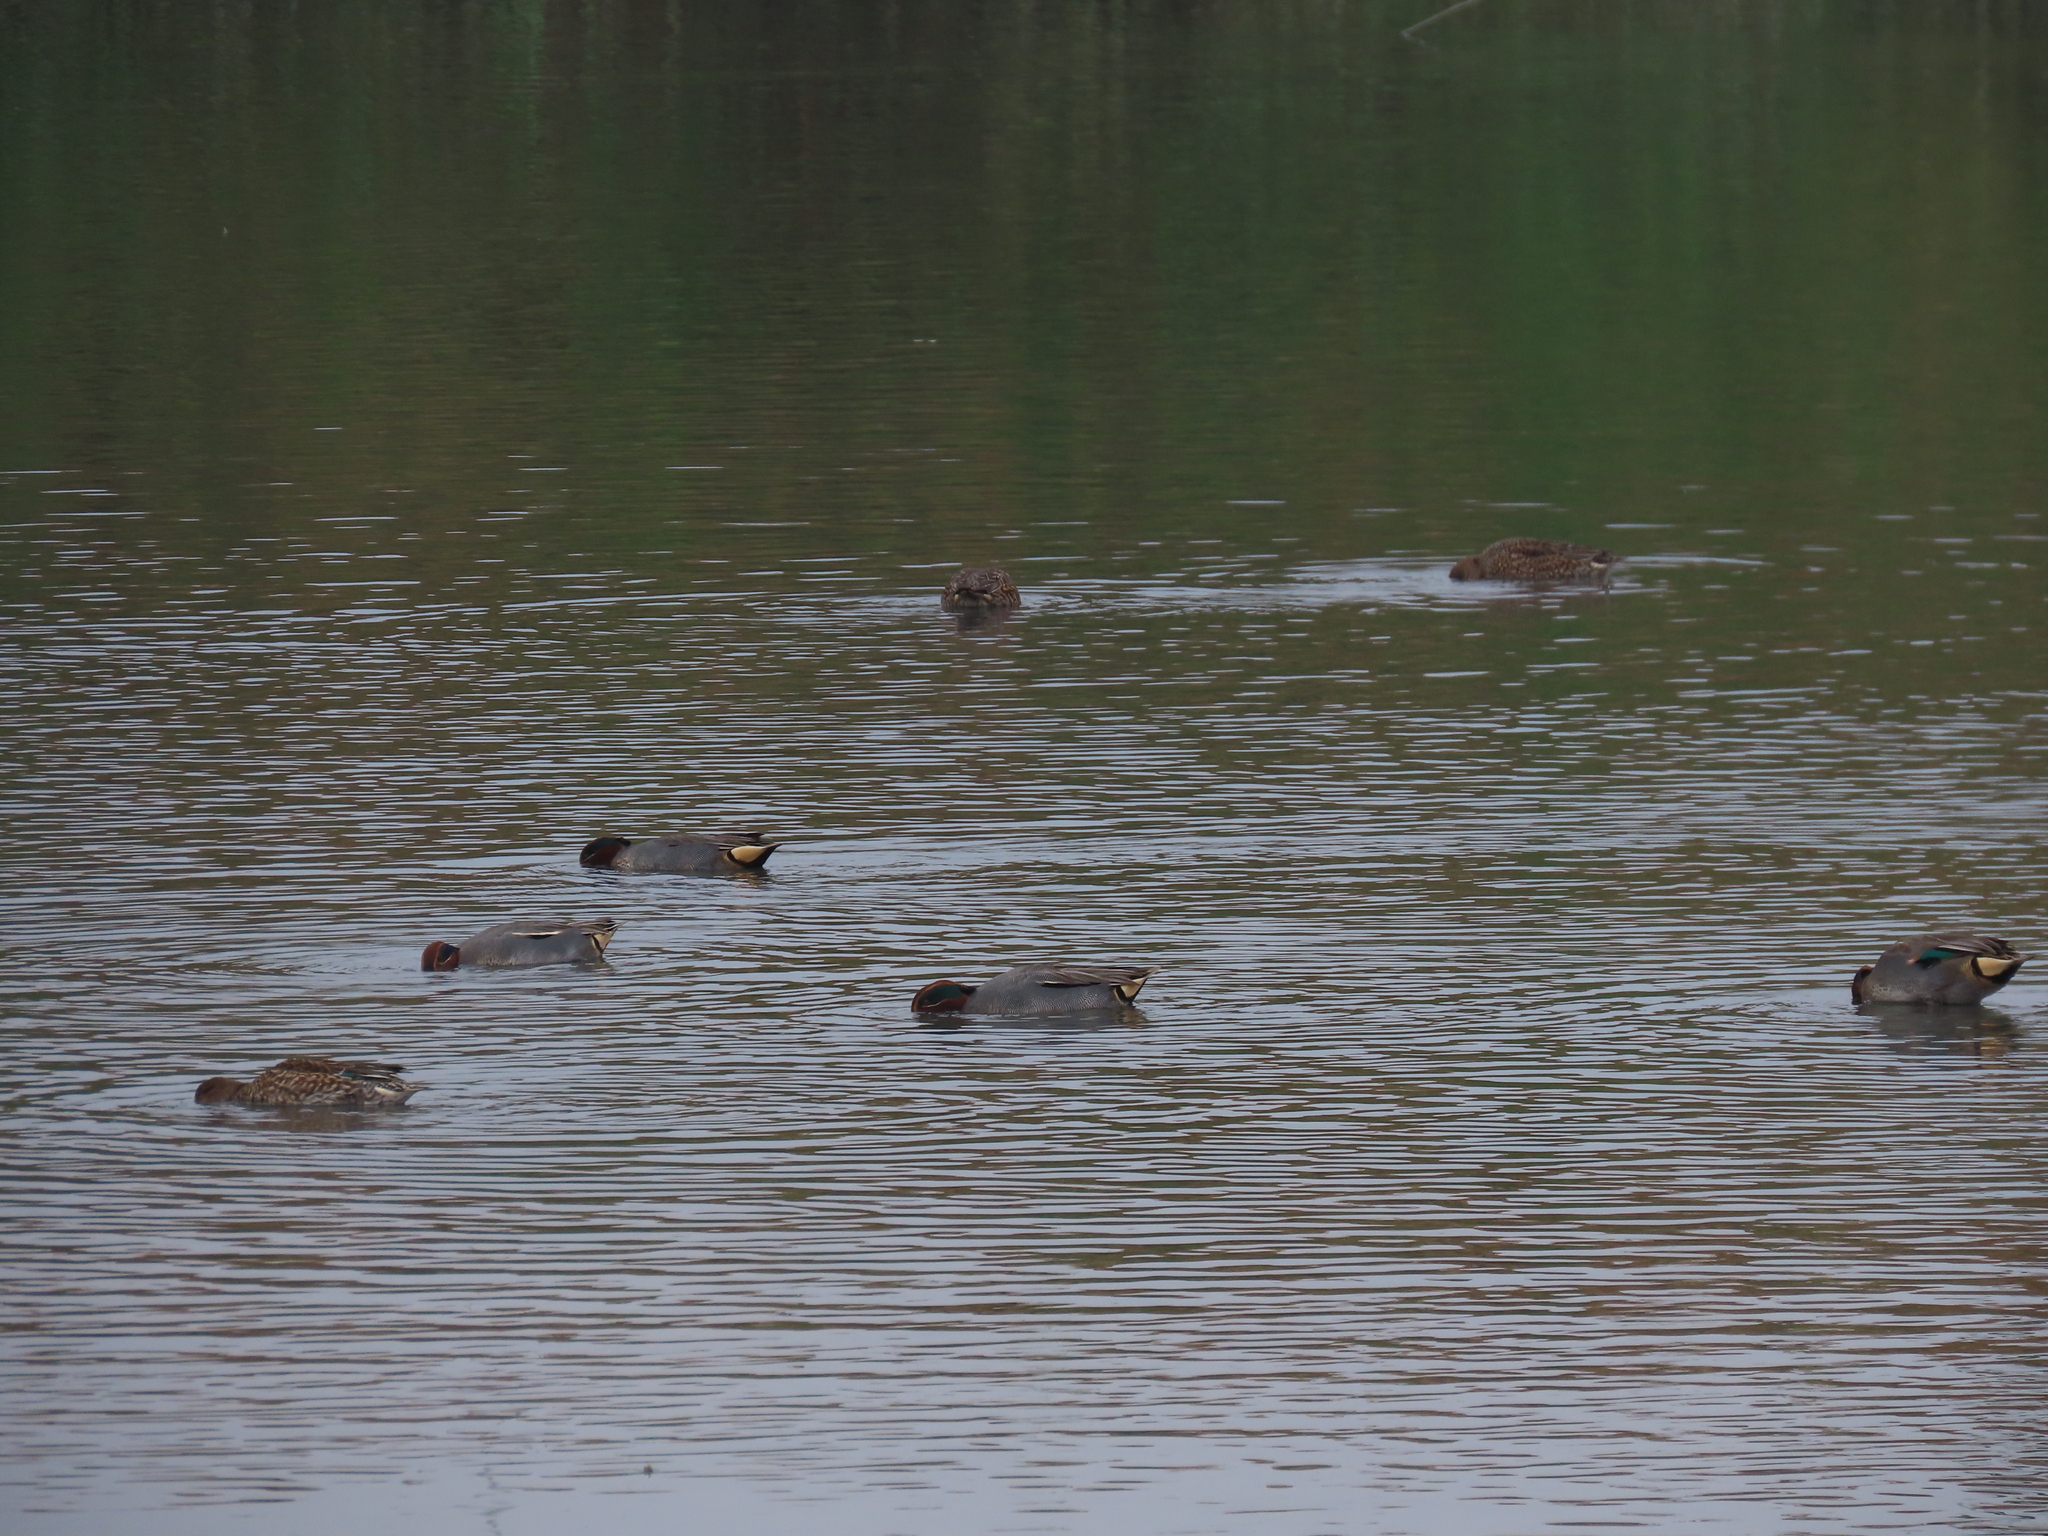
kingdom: Animalia
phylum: Chordata
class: Aves
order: Anseriformes
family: Anatidae
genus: Anas
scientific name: Anas crecca
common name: Eurasian teal
